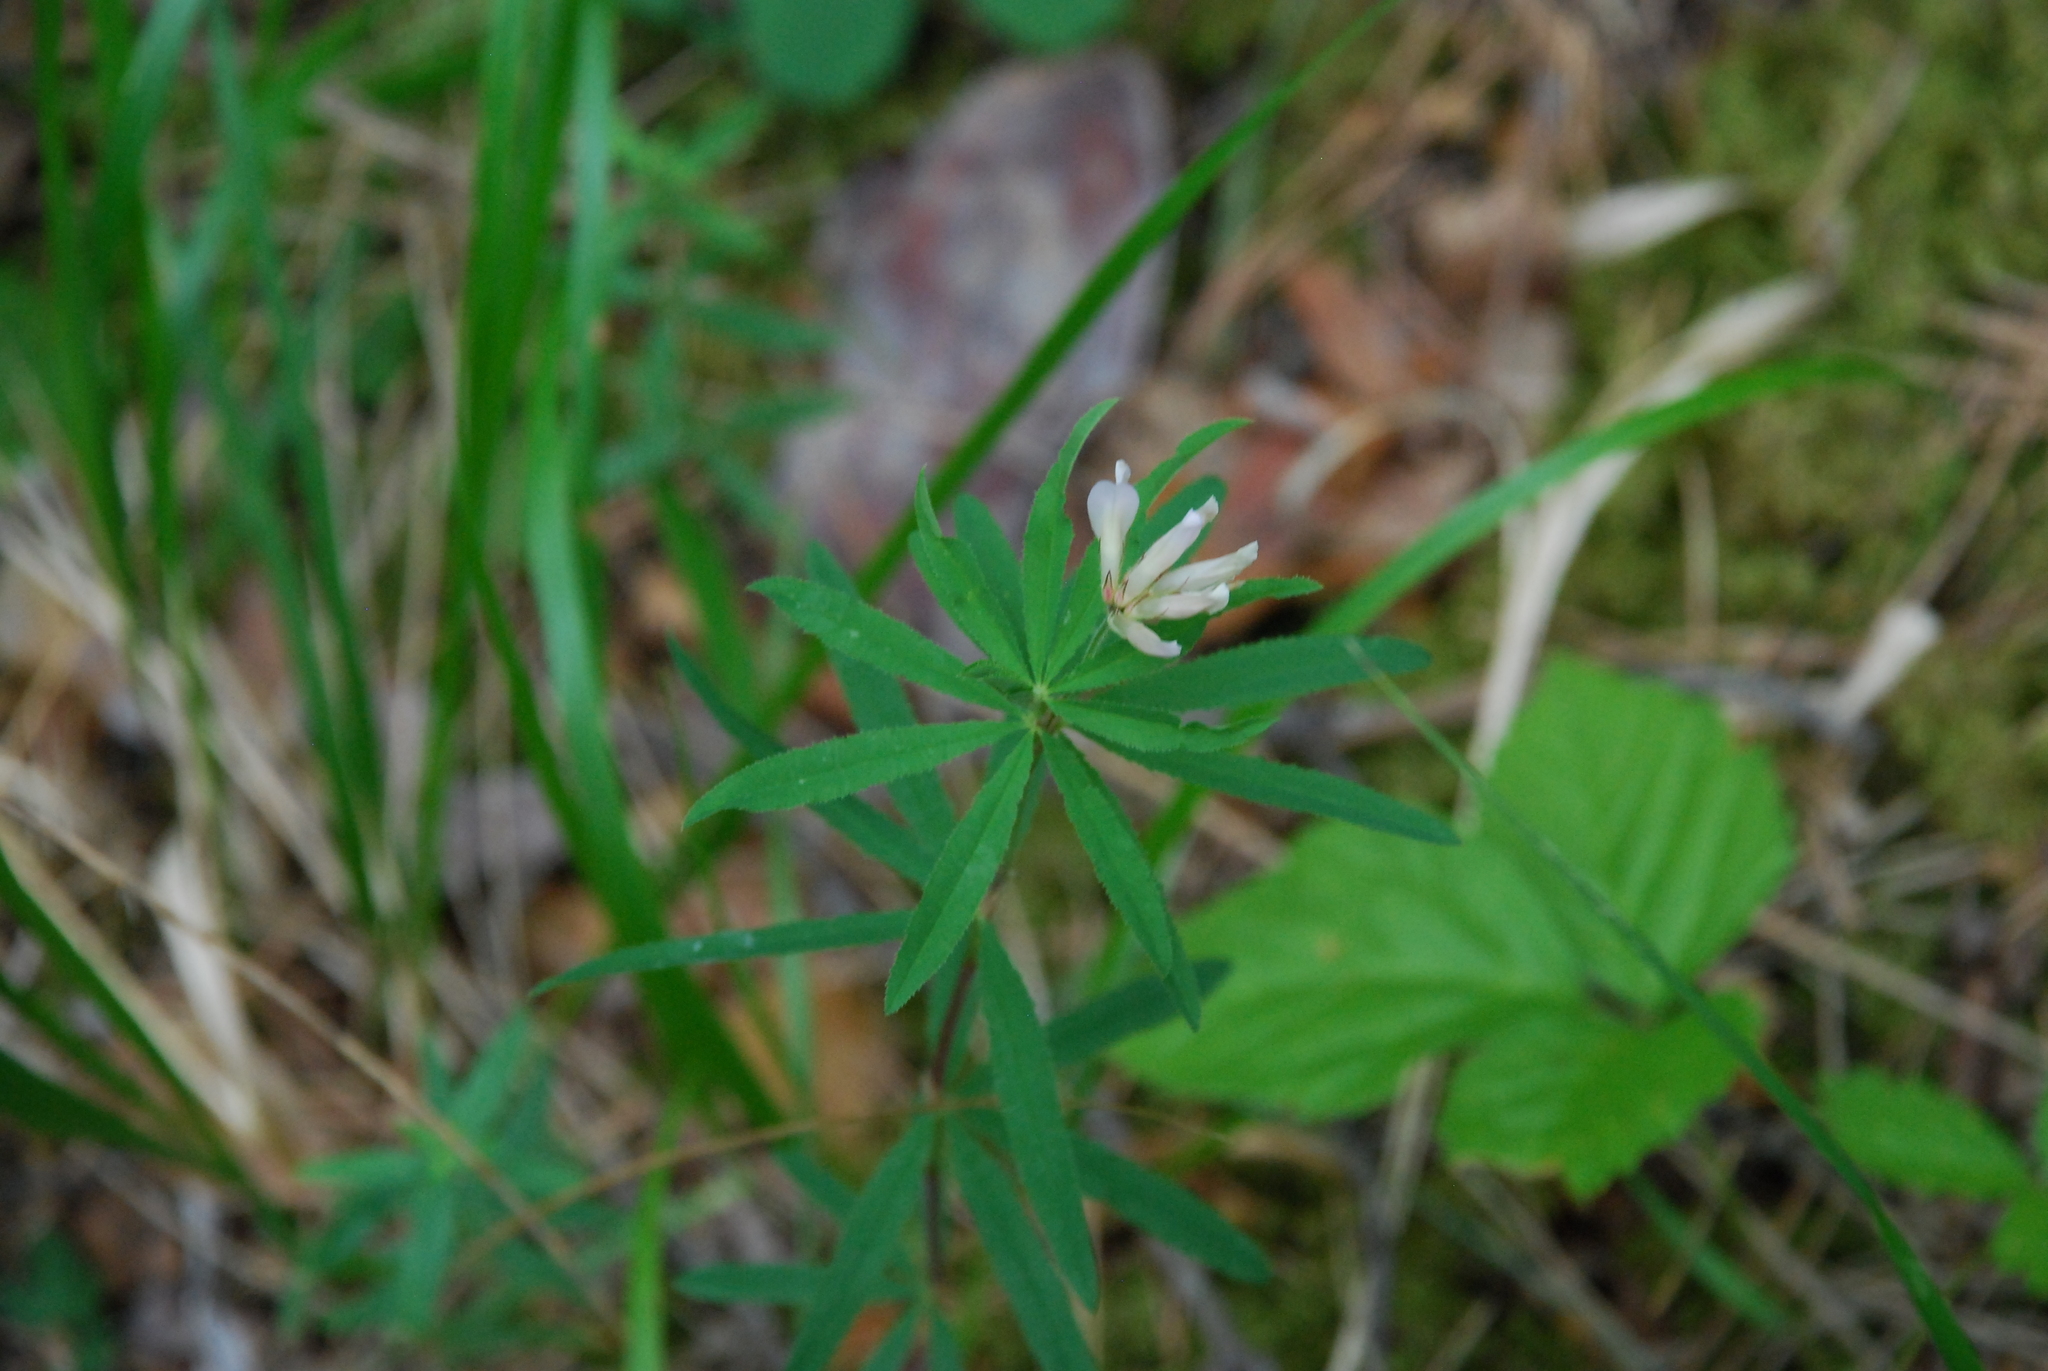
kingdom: Plantae
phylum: Tracheophyta
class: Magnoliopsida
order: Fabales
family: Fabaceae
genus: Trifolium
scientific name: Trifolium lupinaster
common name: Lupine clover
